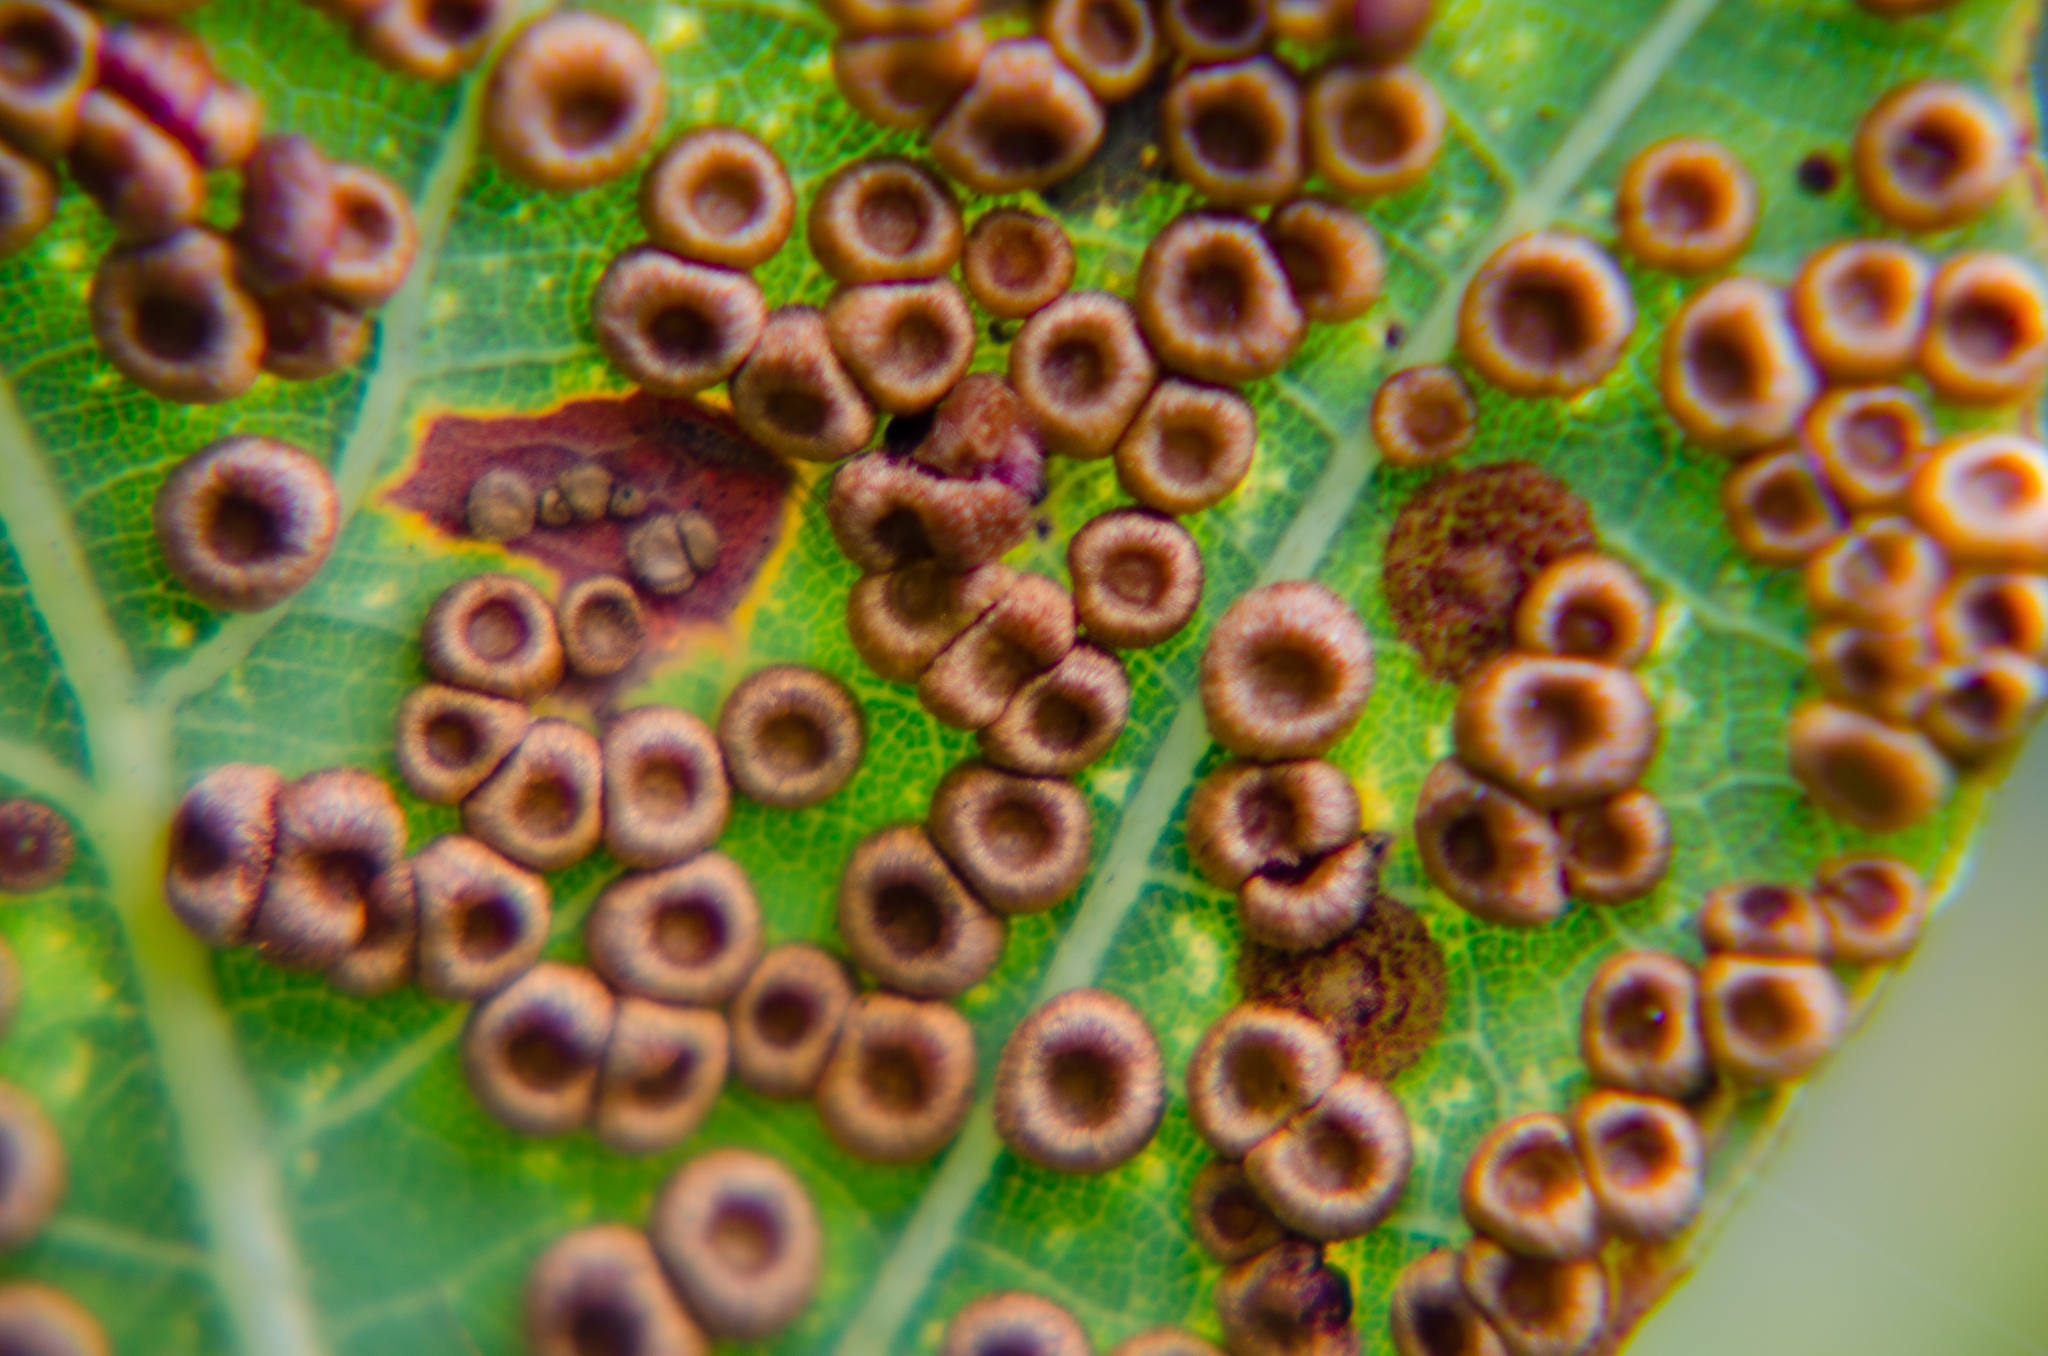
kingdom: Animalia
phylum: Arthropoda
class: Insecta
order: Hymenoptera
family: Cynipidae
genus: Neuroterus
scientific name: Neuroterus numismalis
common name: Silk-button spangle gall
